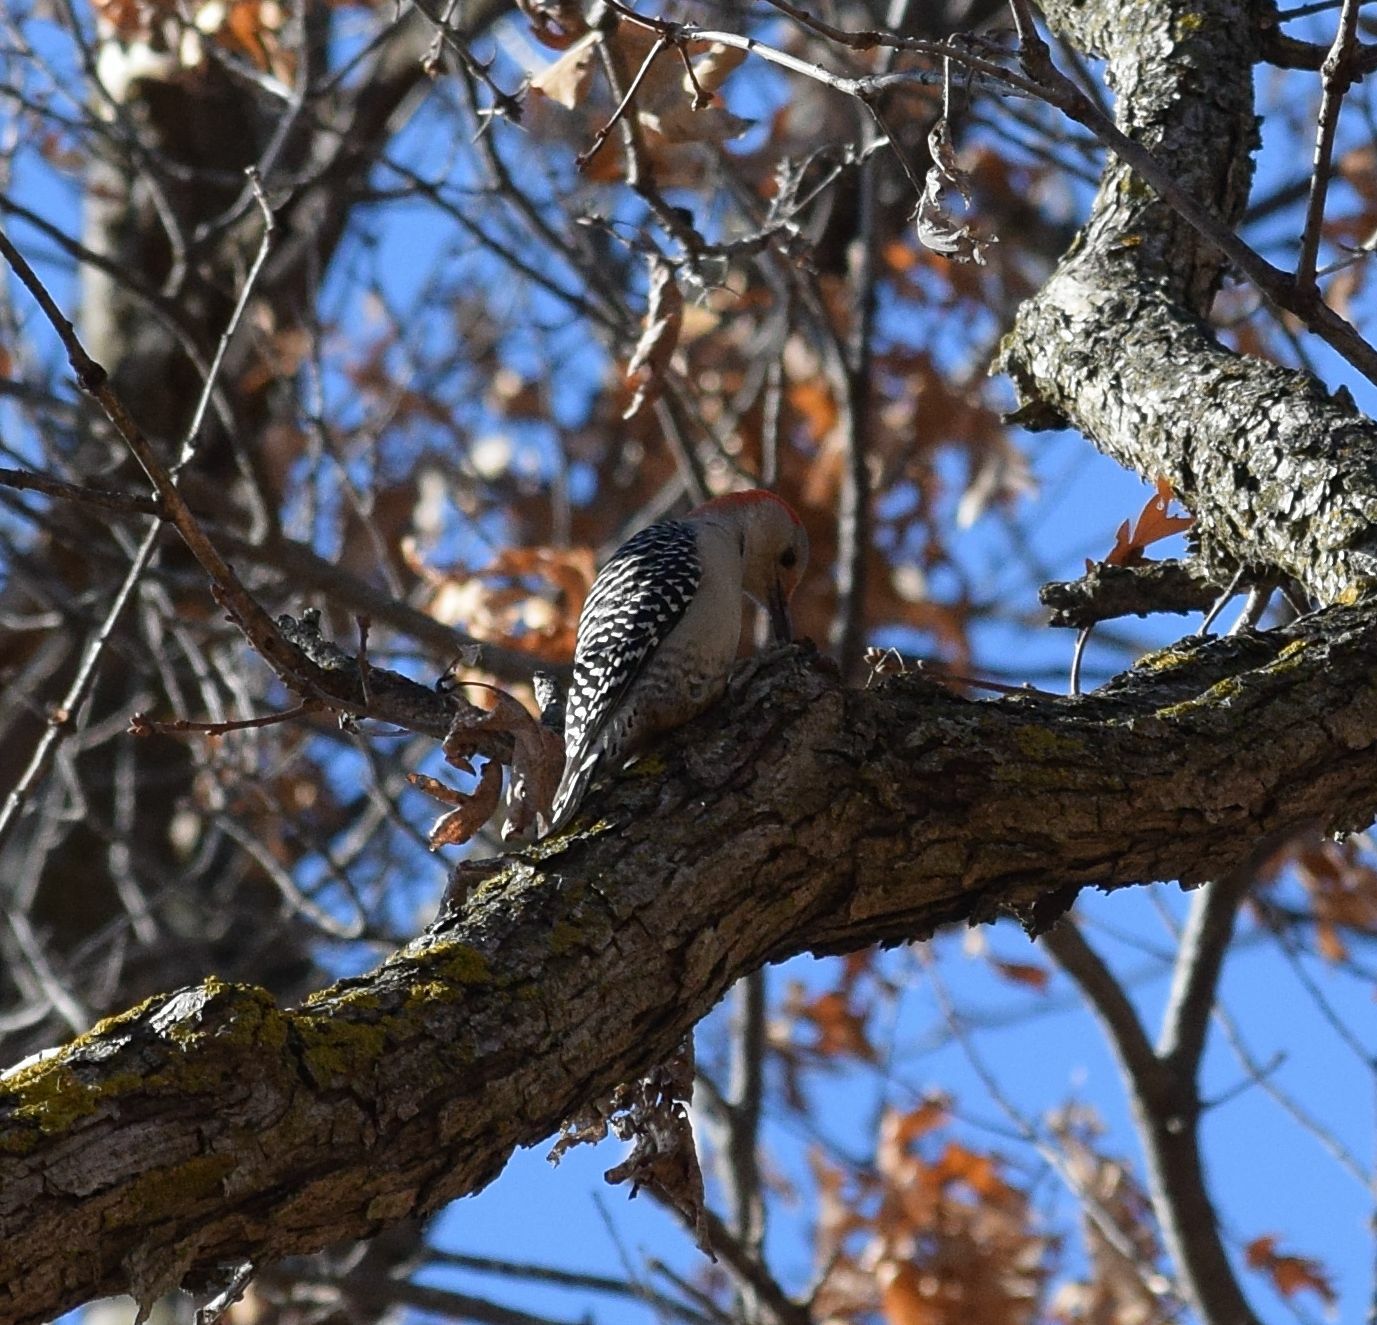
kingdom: Animalia
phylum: Chordata
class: Aves
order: Piciformes
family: Picidae
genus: Melanerpes
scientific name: Melanerpes carolinus
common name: Red-bellied woodpecker
